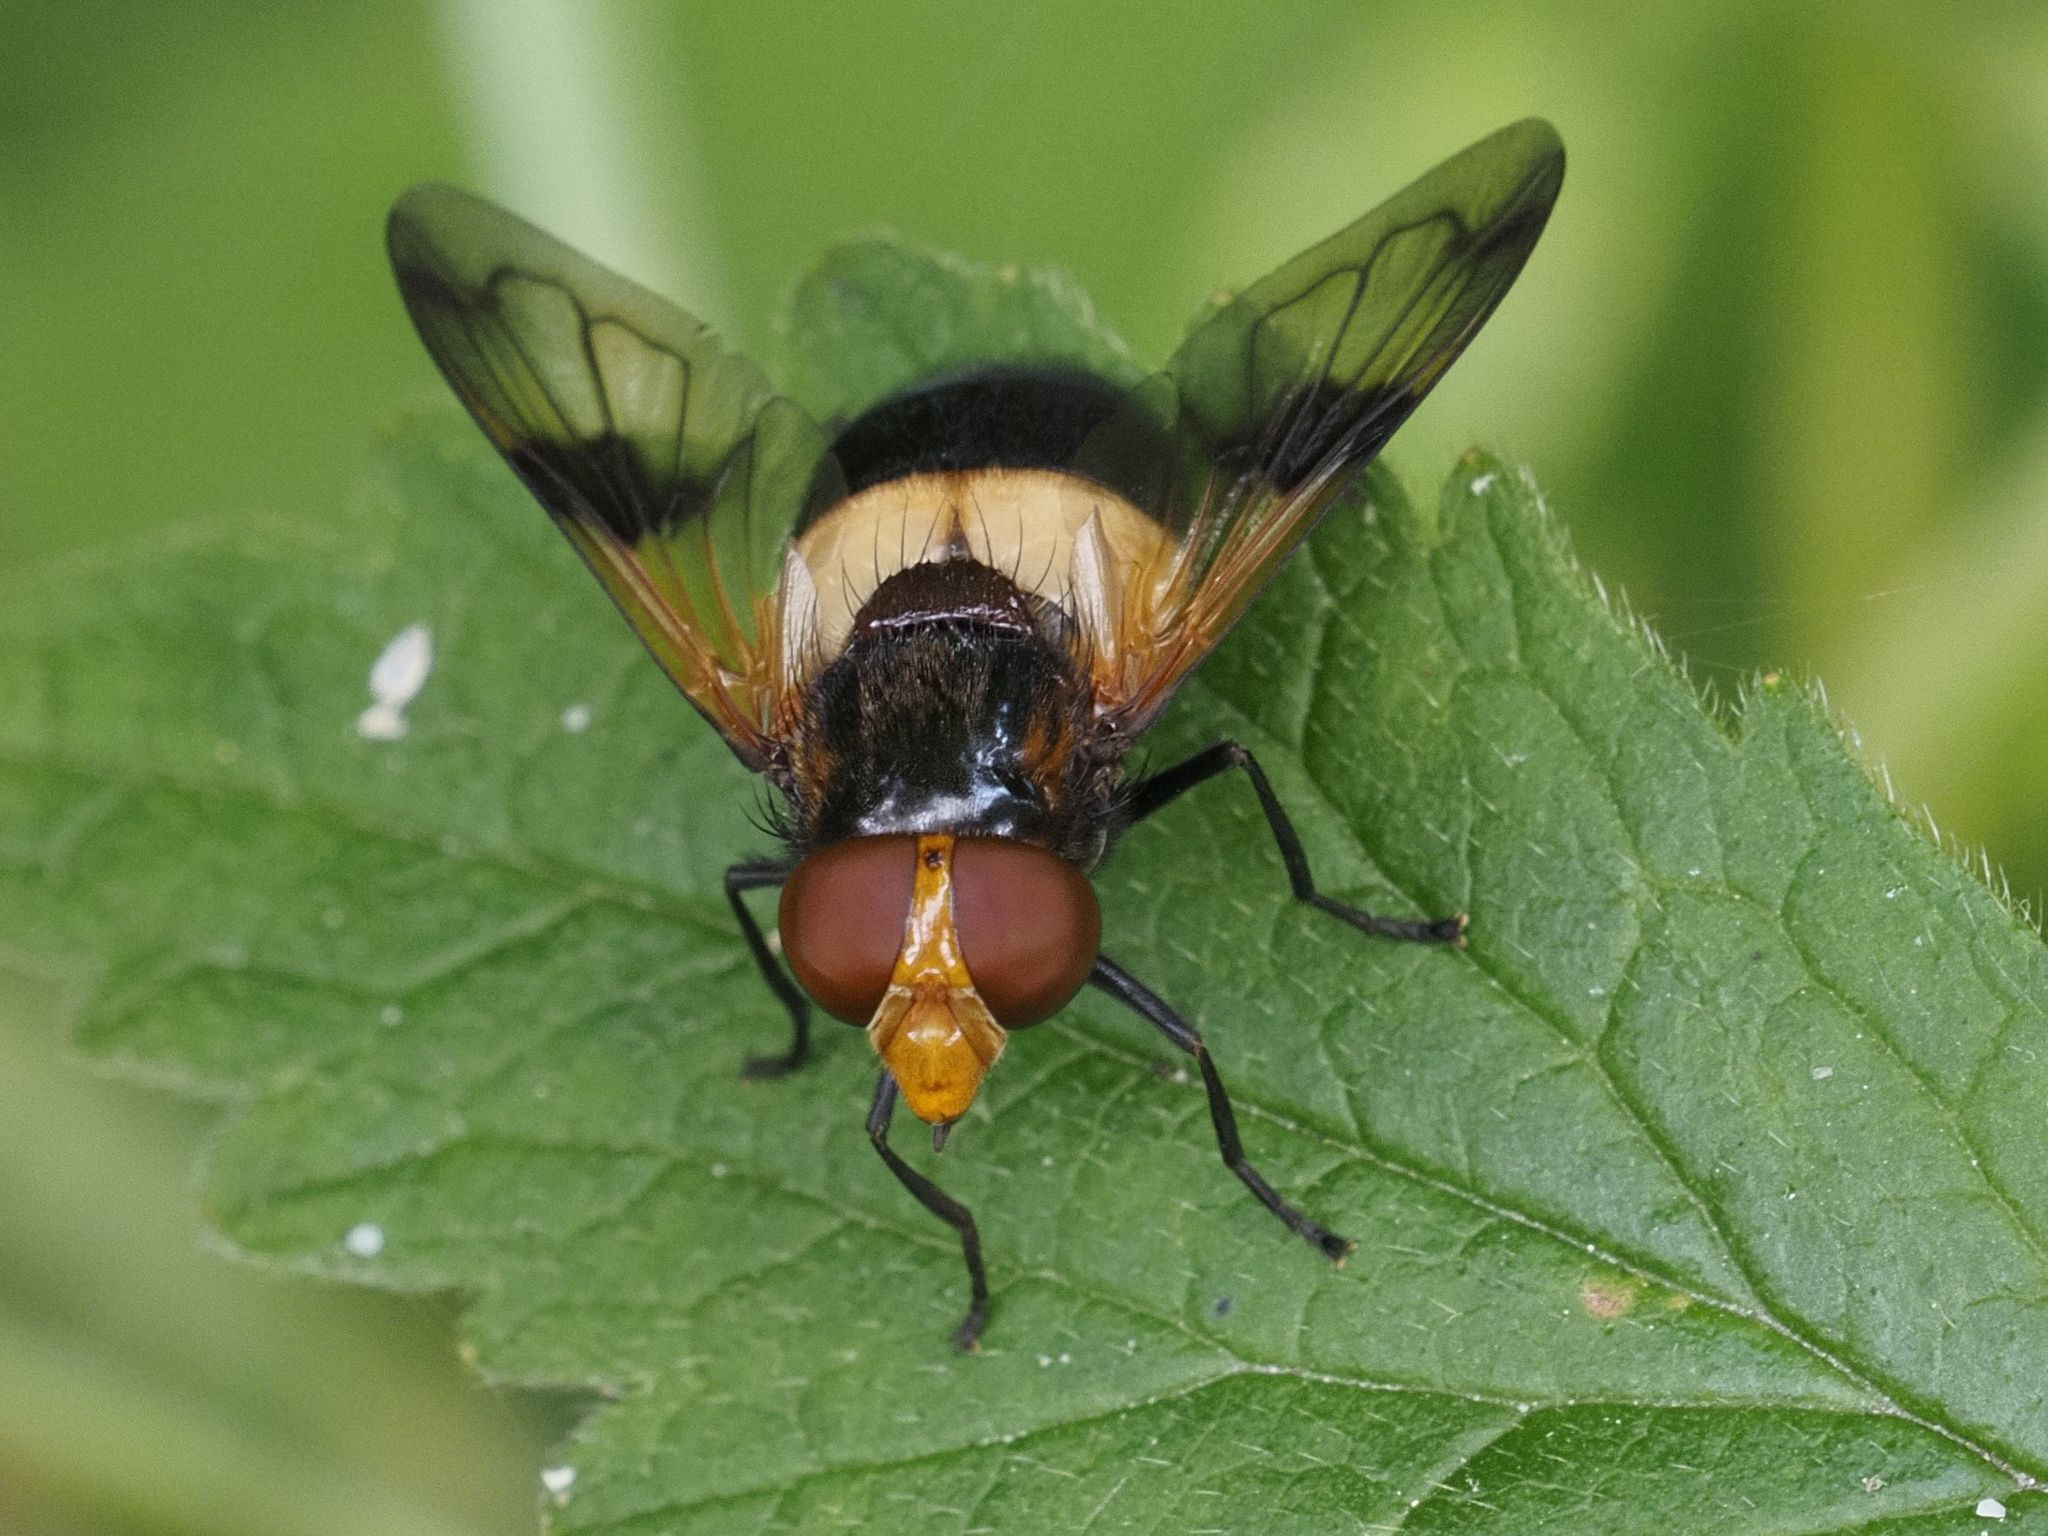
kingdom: Animalia
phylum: Arthropoda
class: Insecta
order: Diptera
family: Syrphidae
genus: Volucella
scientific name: Volucella pellucens
